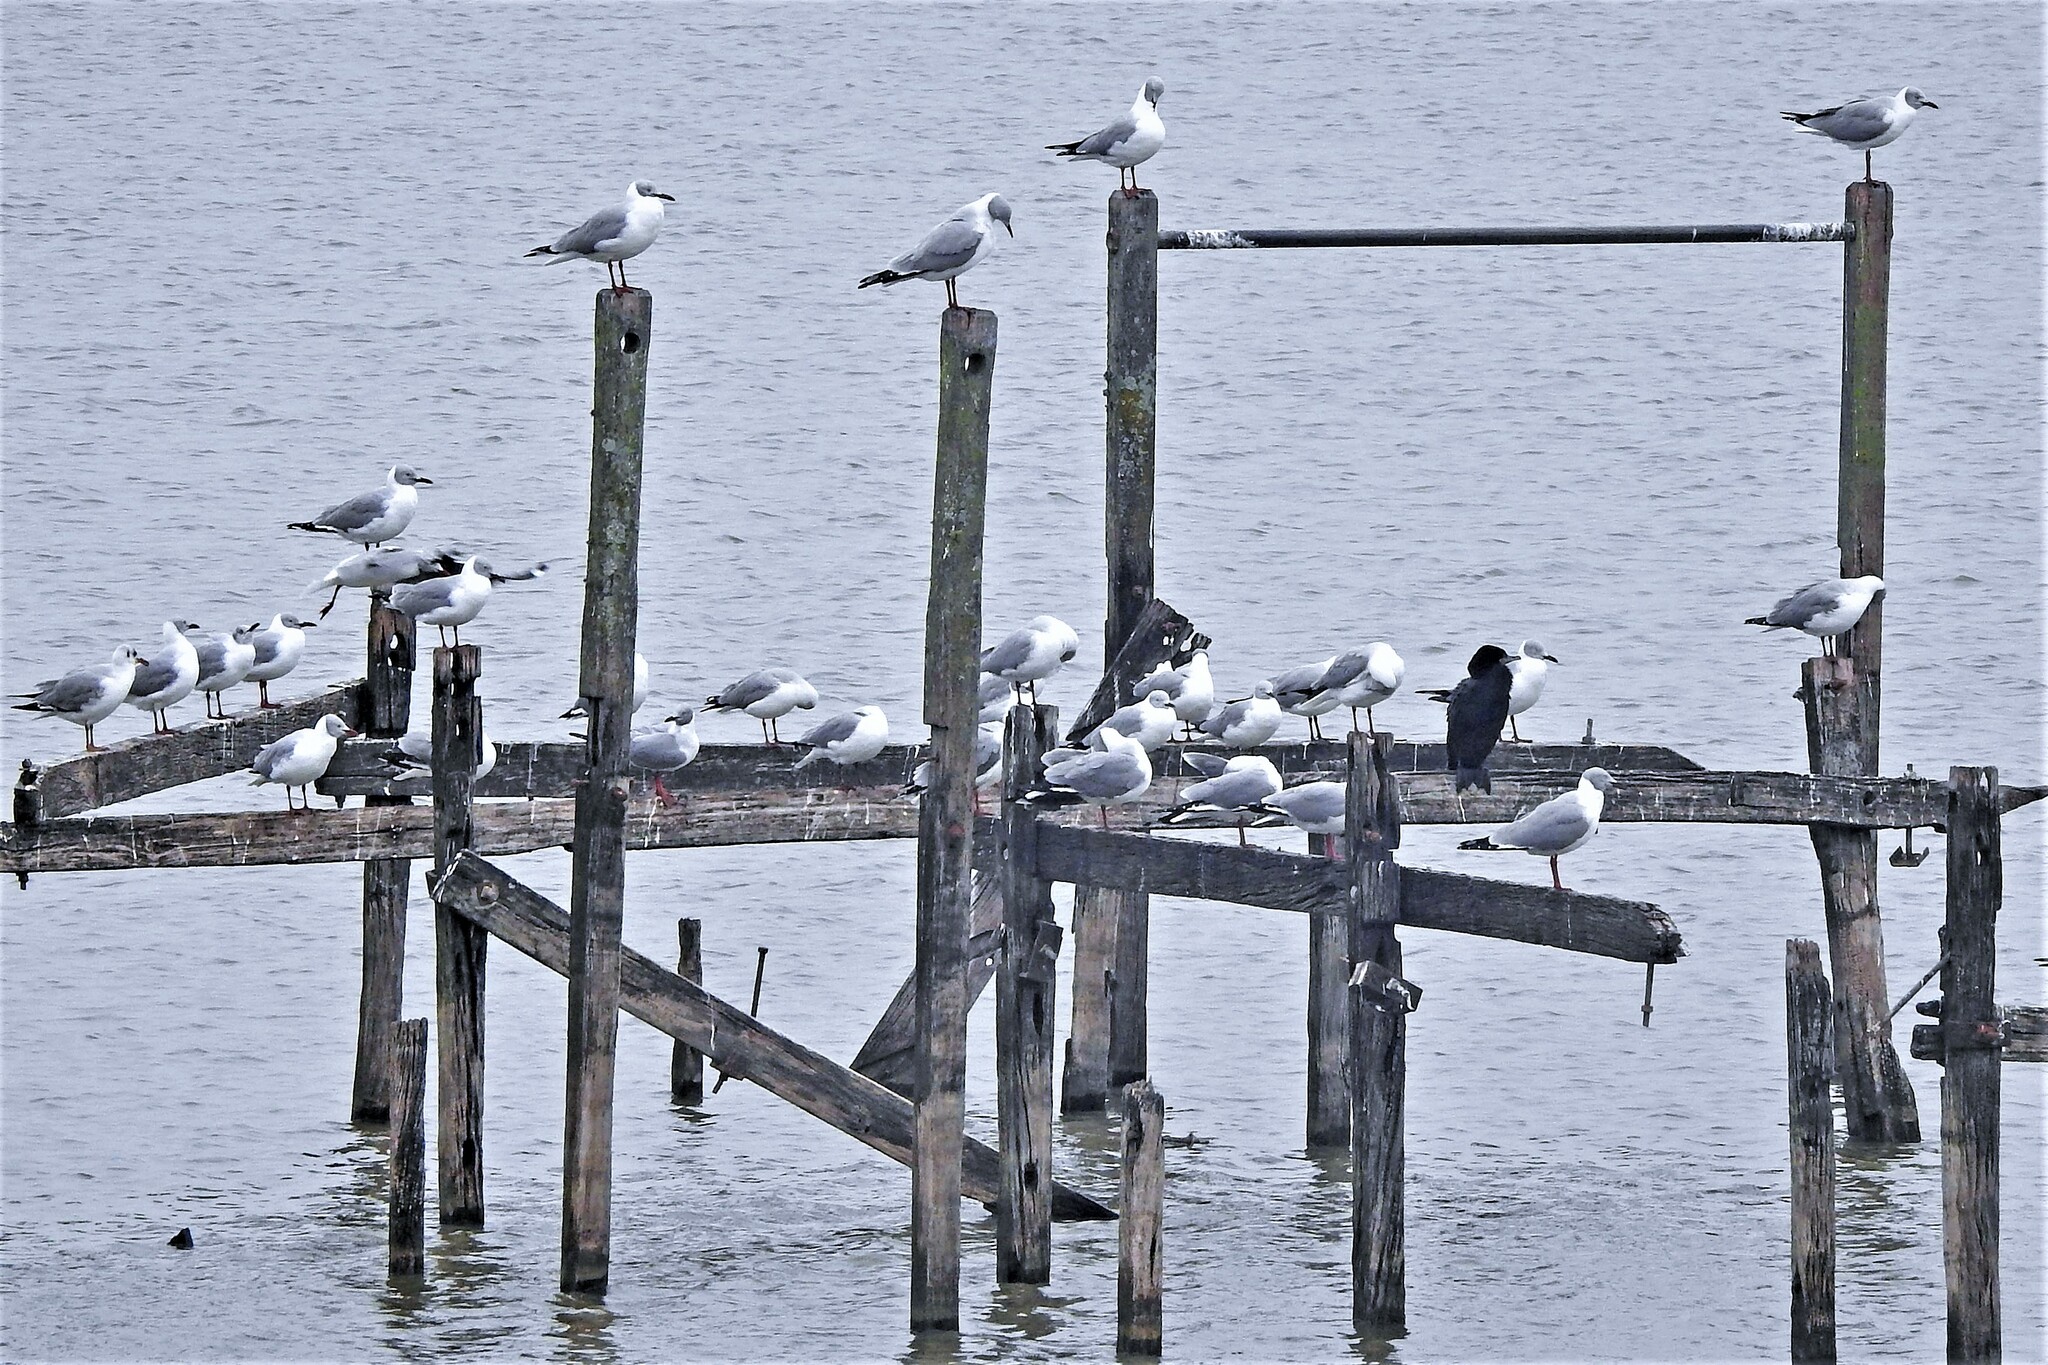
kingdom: Animalia
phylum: Chordata
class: Aves
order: Charadriiformes
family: Laridae
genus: Chroicocephalus
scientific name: Chroicocephalus cirrocephalus
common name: Grey-headed gull
